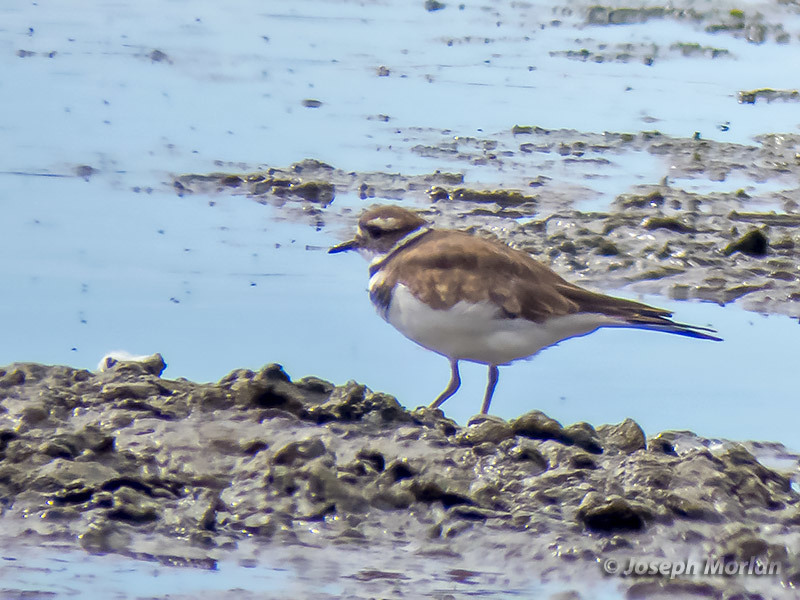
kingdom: Animalia
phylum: Chordata
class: Aves
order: Charadriiformes
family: Charadriidae
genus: Charadrius
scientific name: Charadrius vociferus
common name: Killdeer
